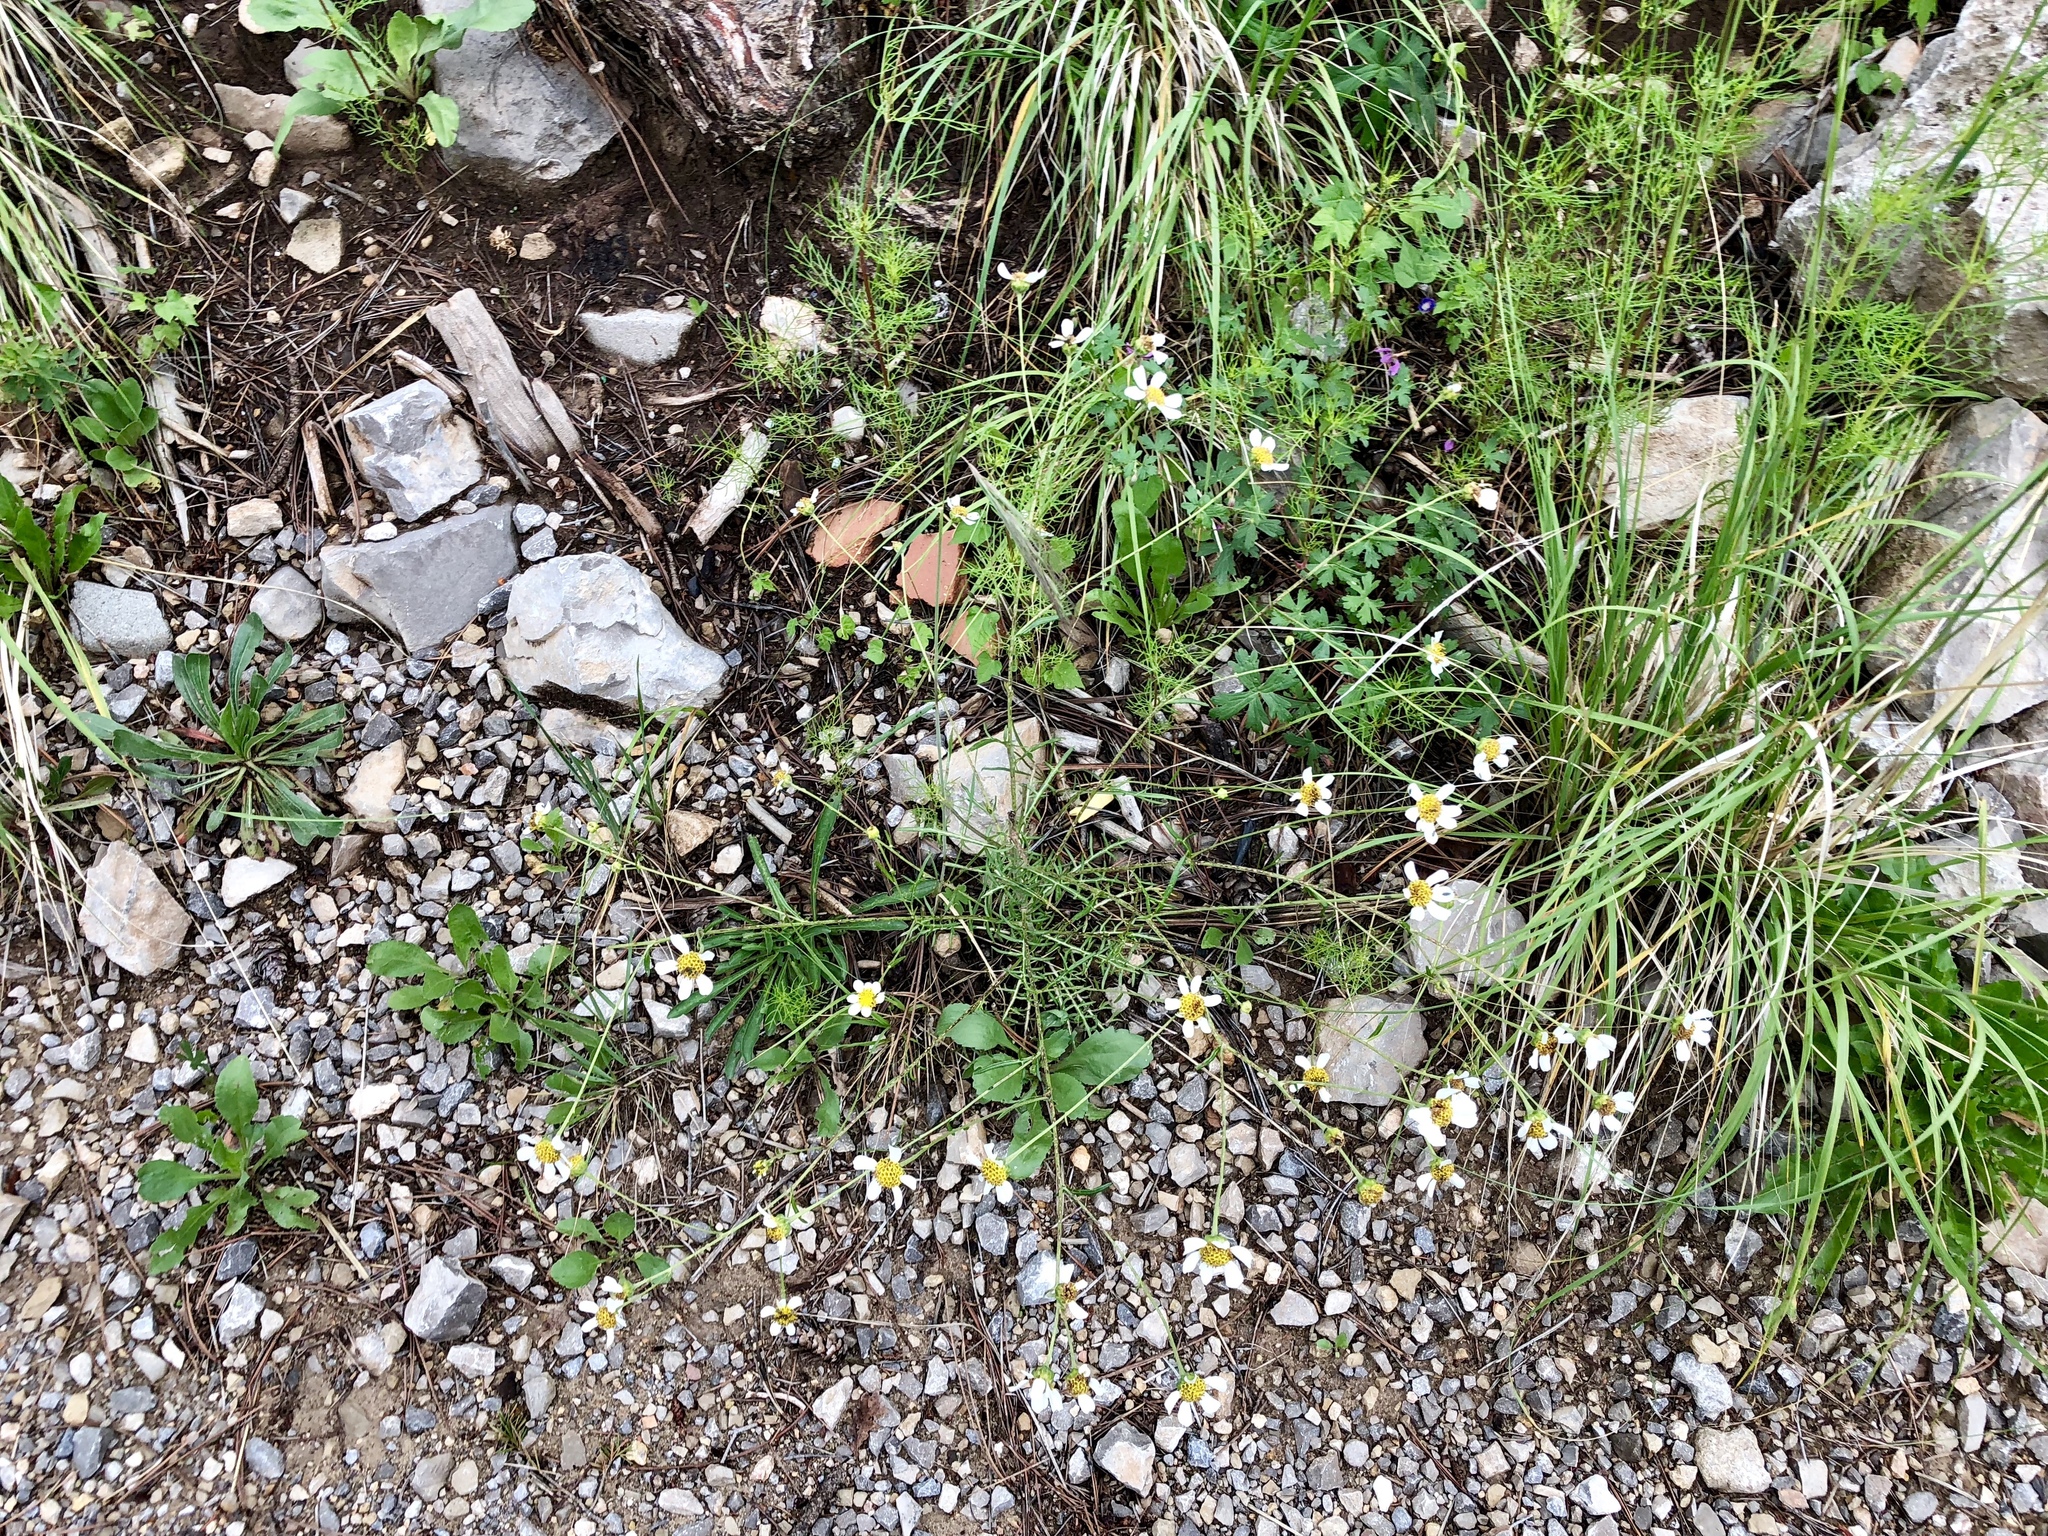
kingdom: Plantae
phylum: Tracheophyta
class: Magnoliopsida
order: Asterales
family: Asteraceae
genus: Hymenopappus
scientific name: Hymenopappus biennis
